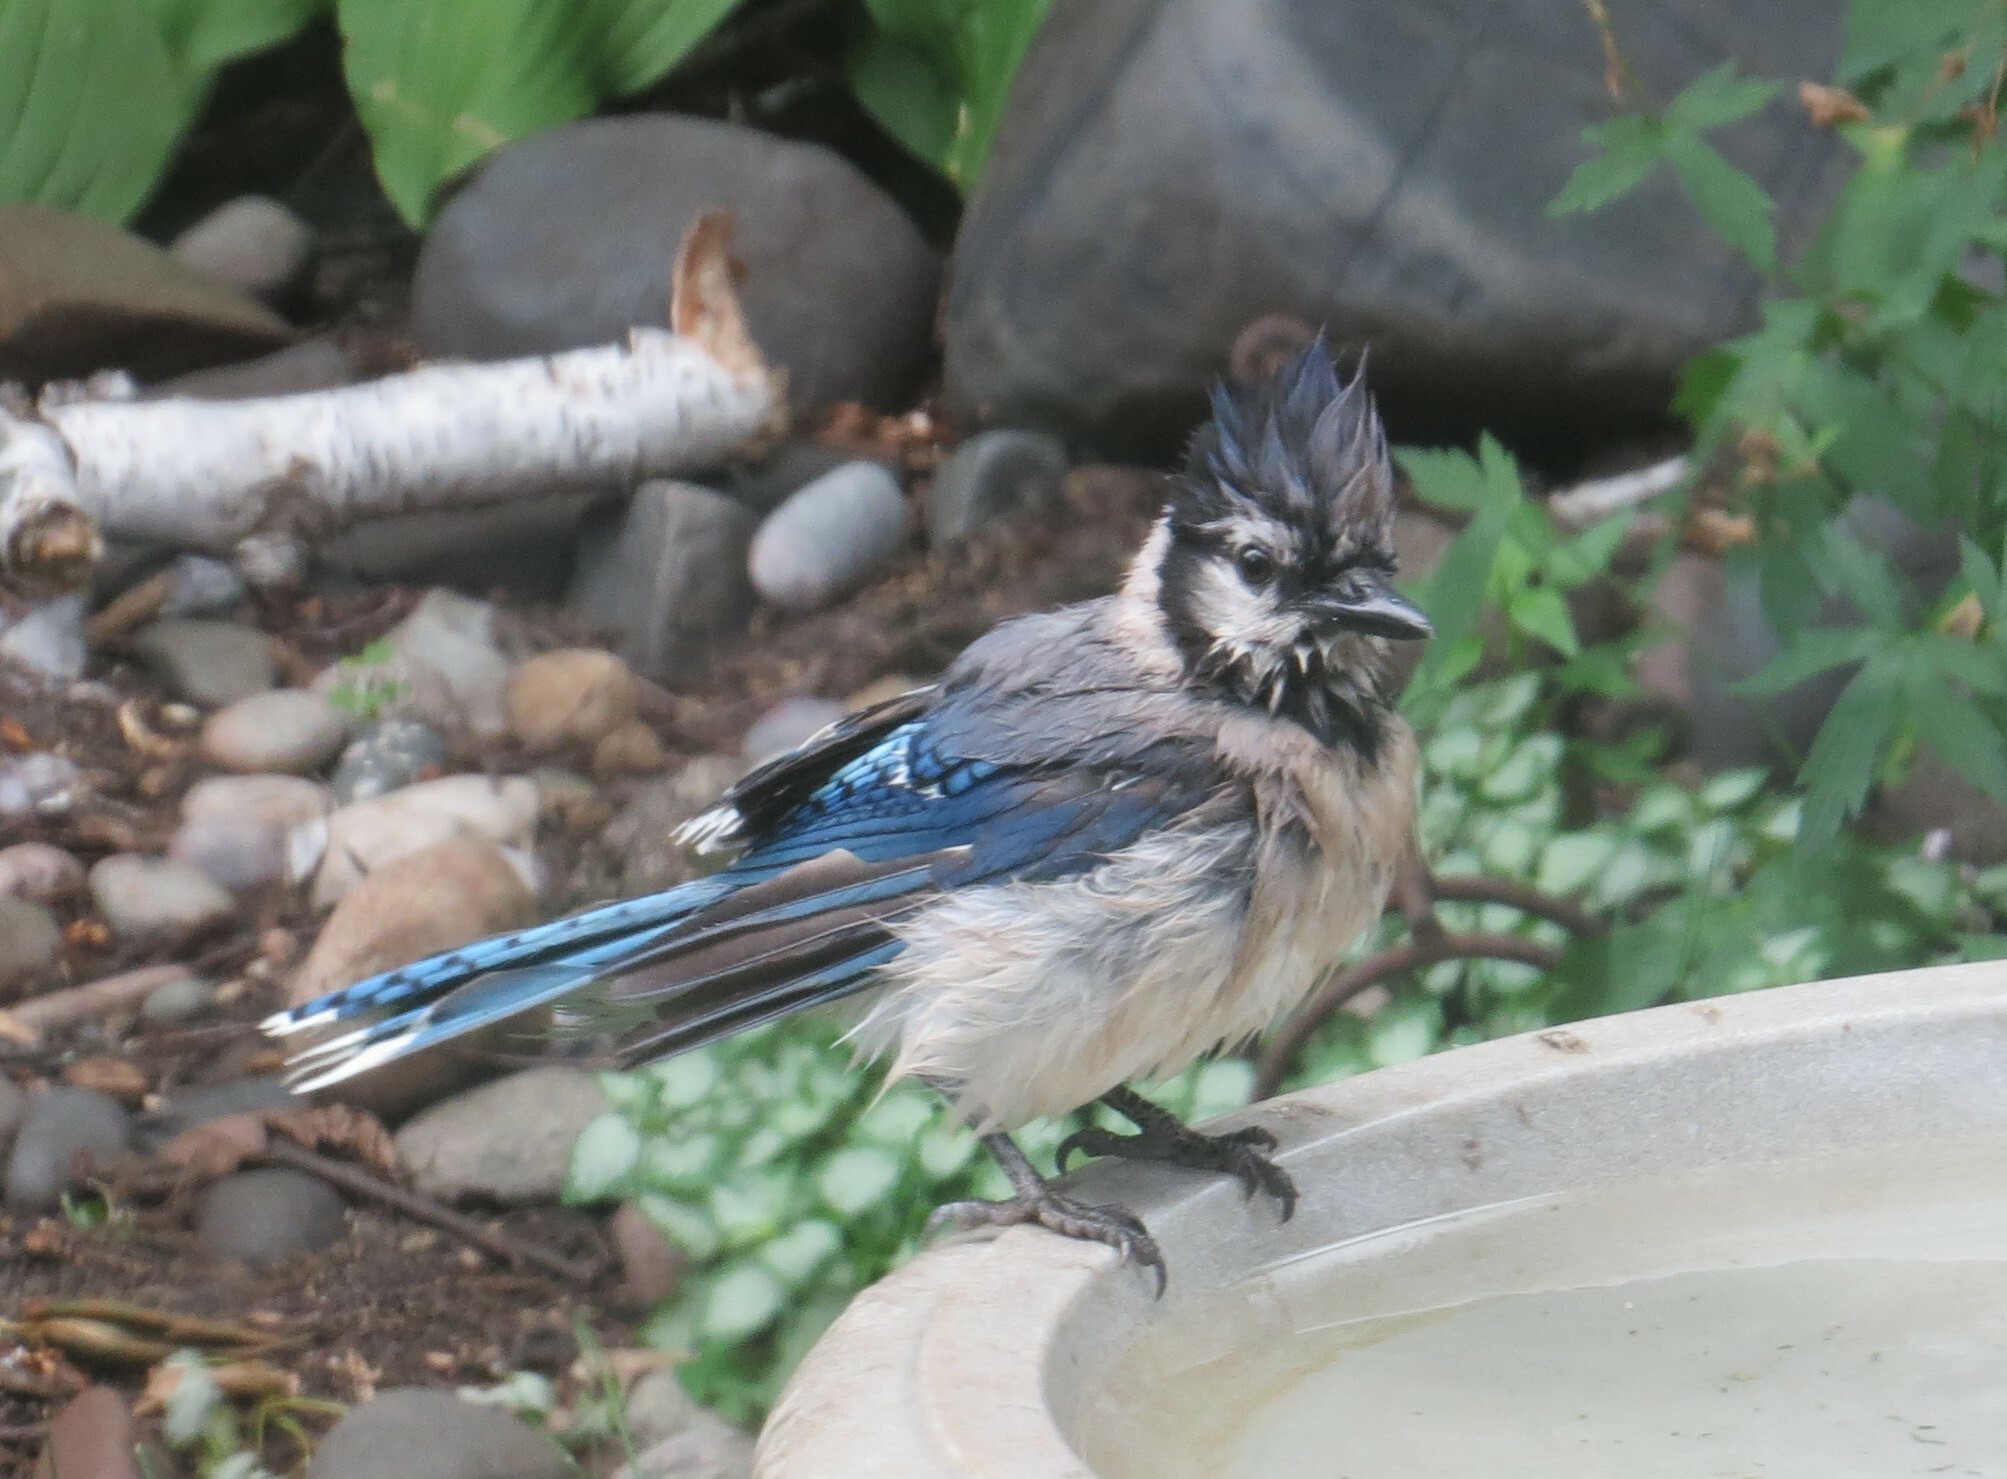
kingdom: Animalia
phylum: Chordata
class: Aves
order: Passeriformes
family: Corvidae
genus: Cyanocitta
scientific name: Cyanocitta cristata
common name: Blue jay
